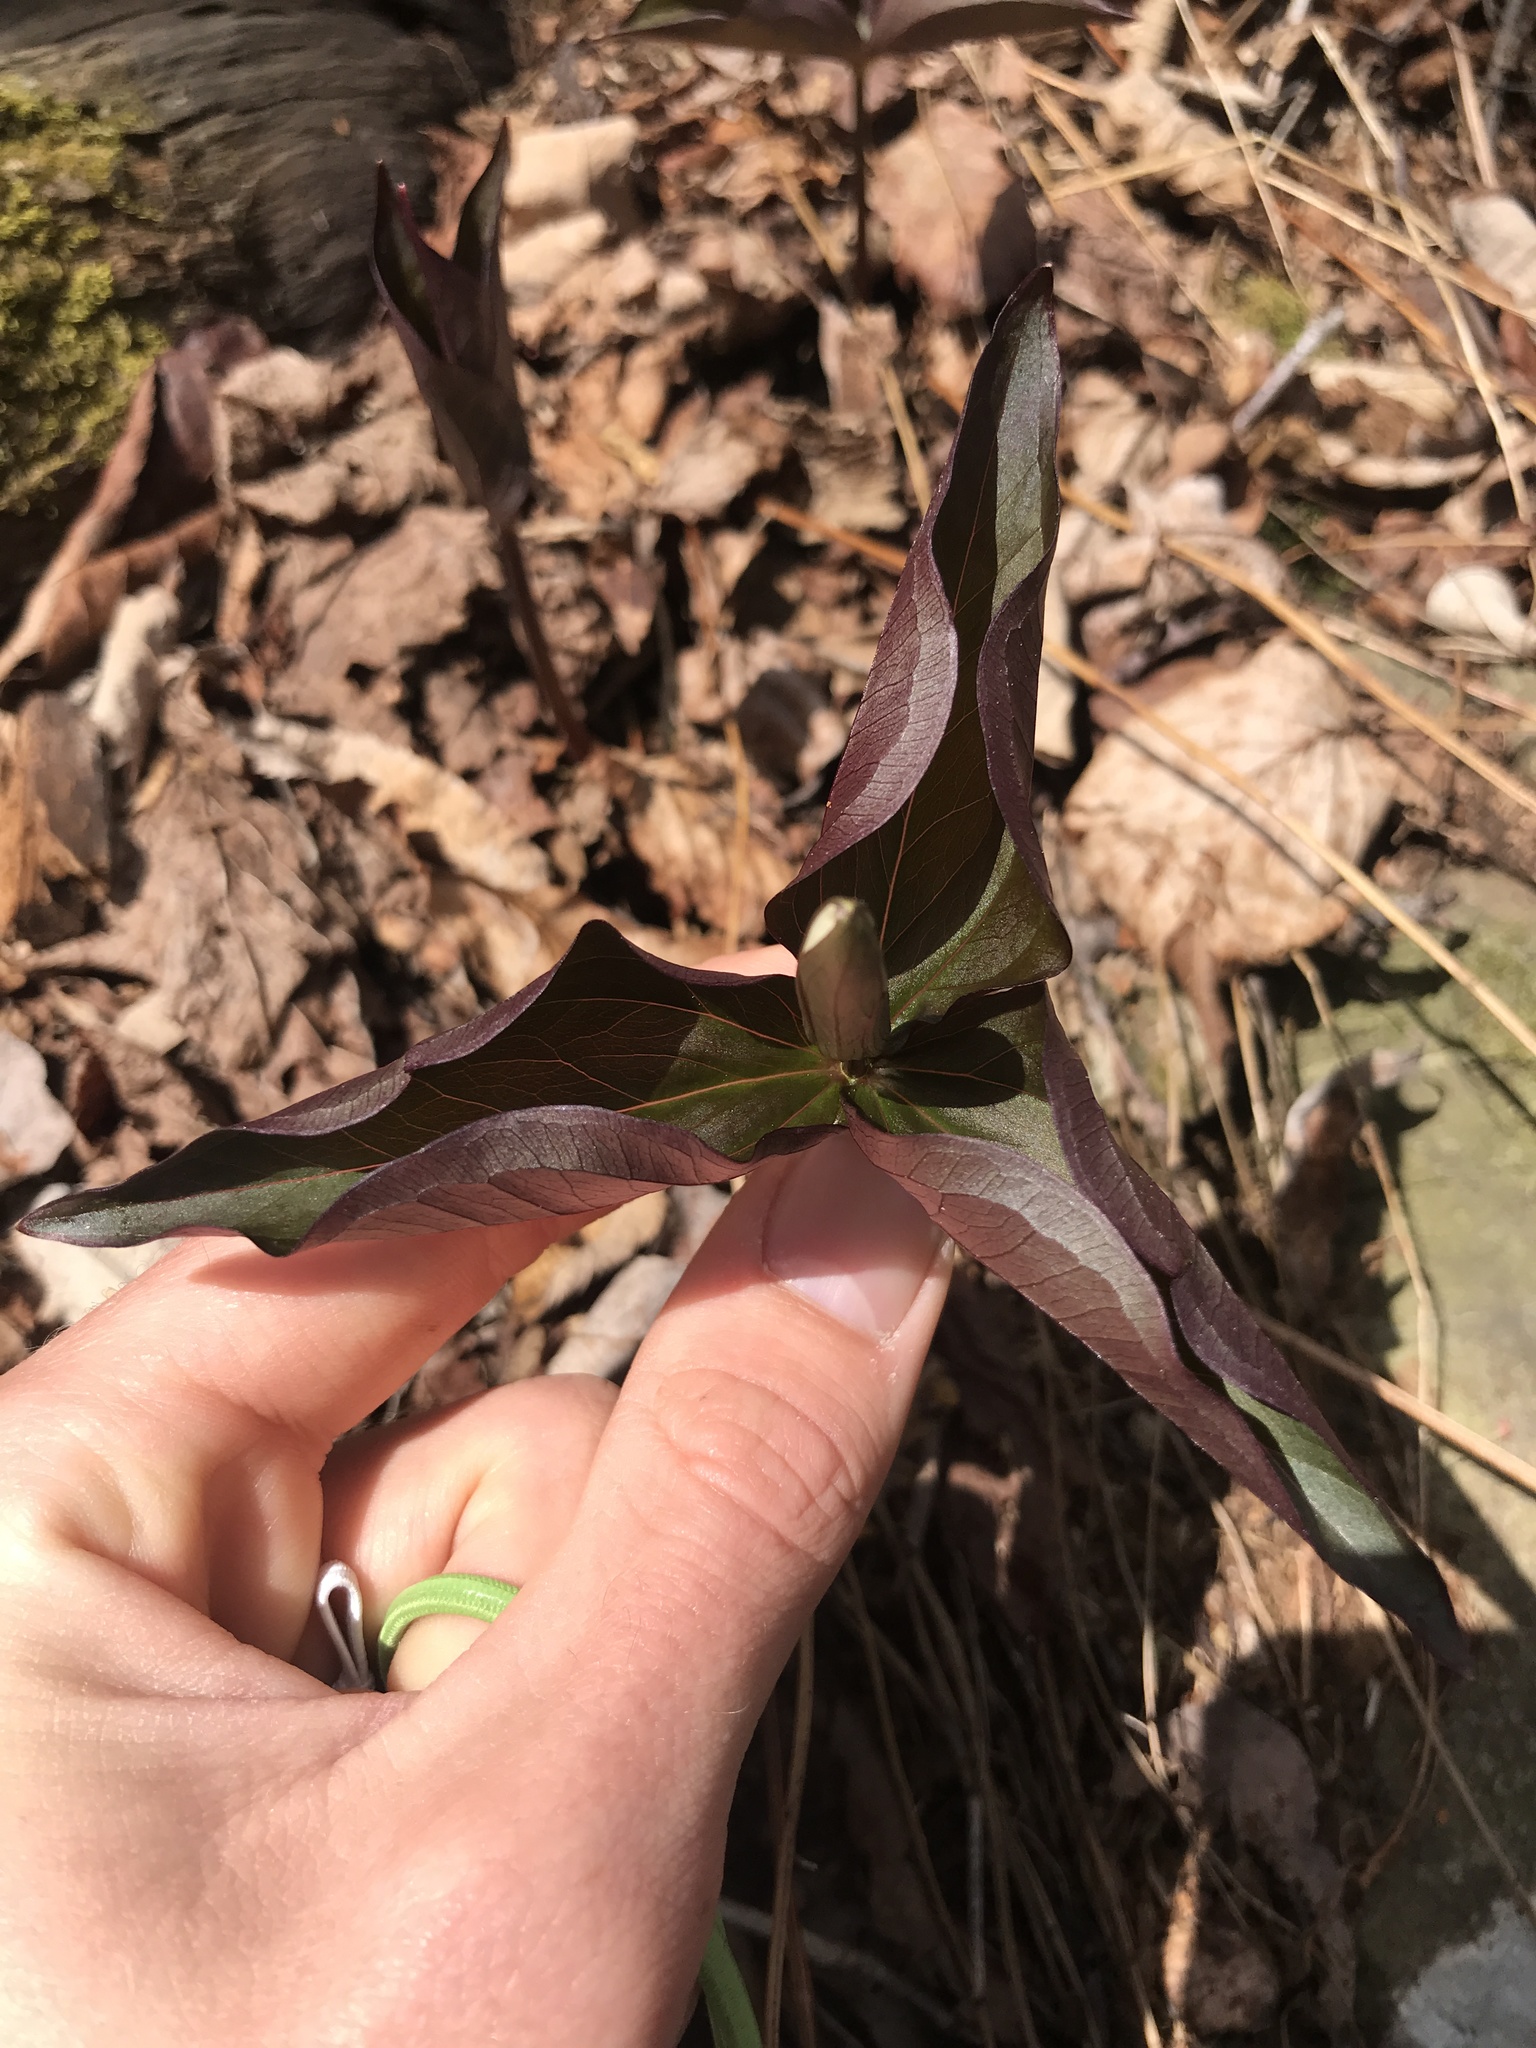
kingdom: Plantae
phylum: Tracheophyta
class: Liliopsida
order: Liliales
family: Melanthiaceae
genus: Trillium
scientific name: Trillium grandiflorum
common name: Great white trillium
